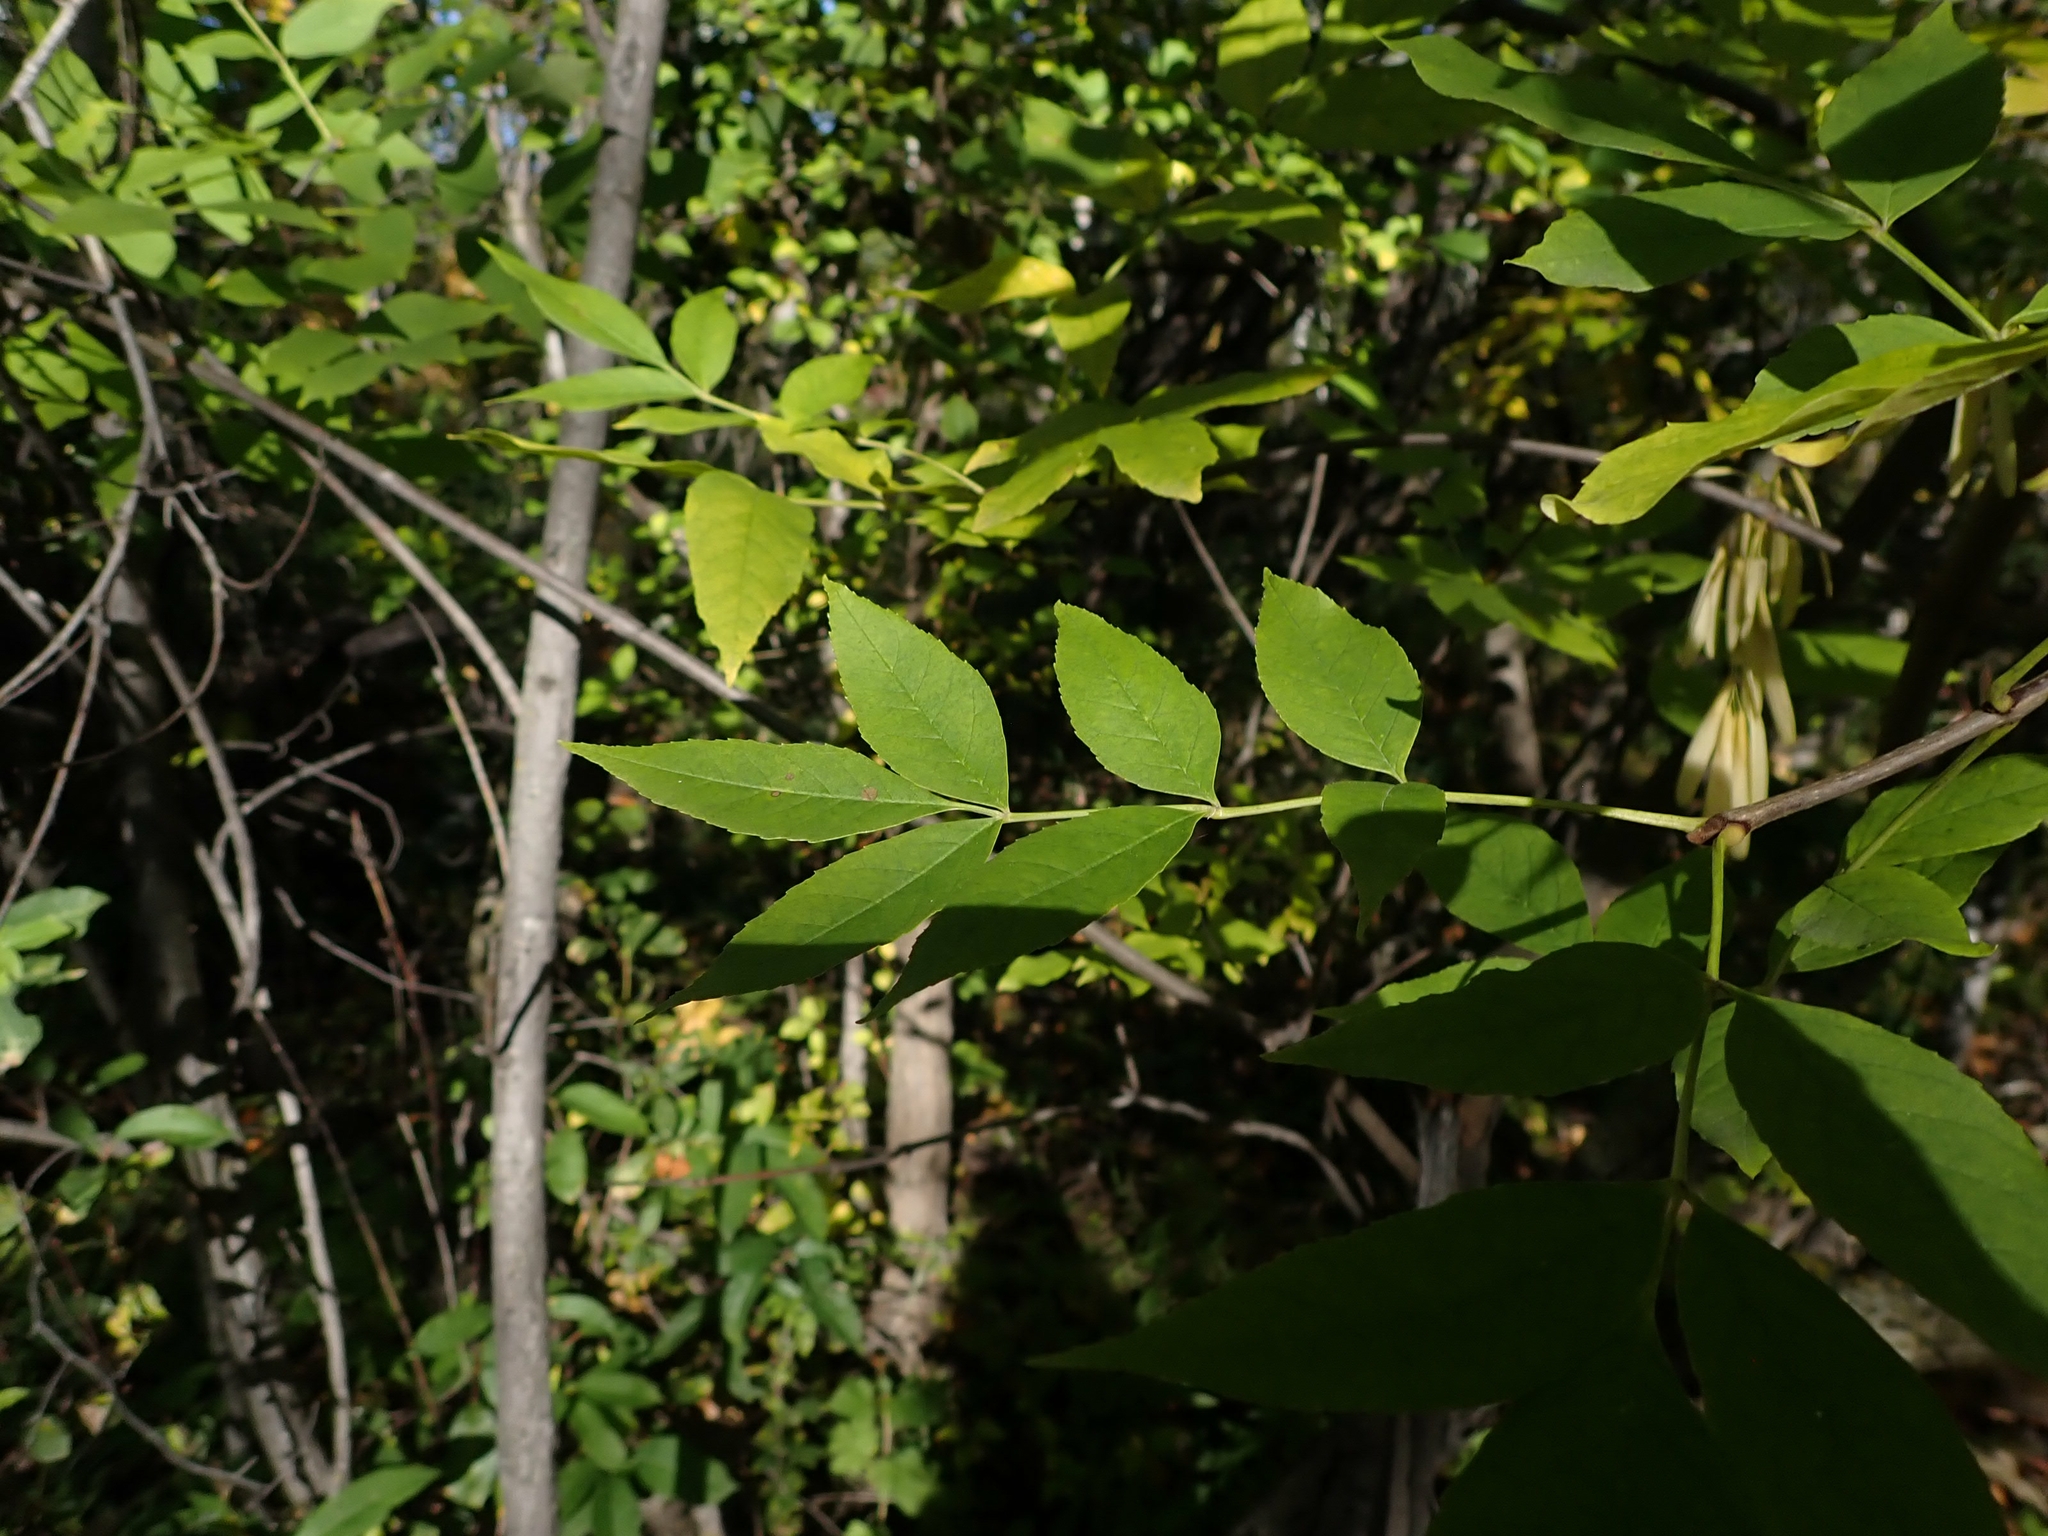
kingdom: Plantae
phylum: Tracheophyta
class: Magnoliopsida
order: Lamiales
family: Oleaceae
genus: Fraxinus
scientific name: Fraxinus pennsylvanica
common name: Green ash
